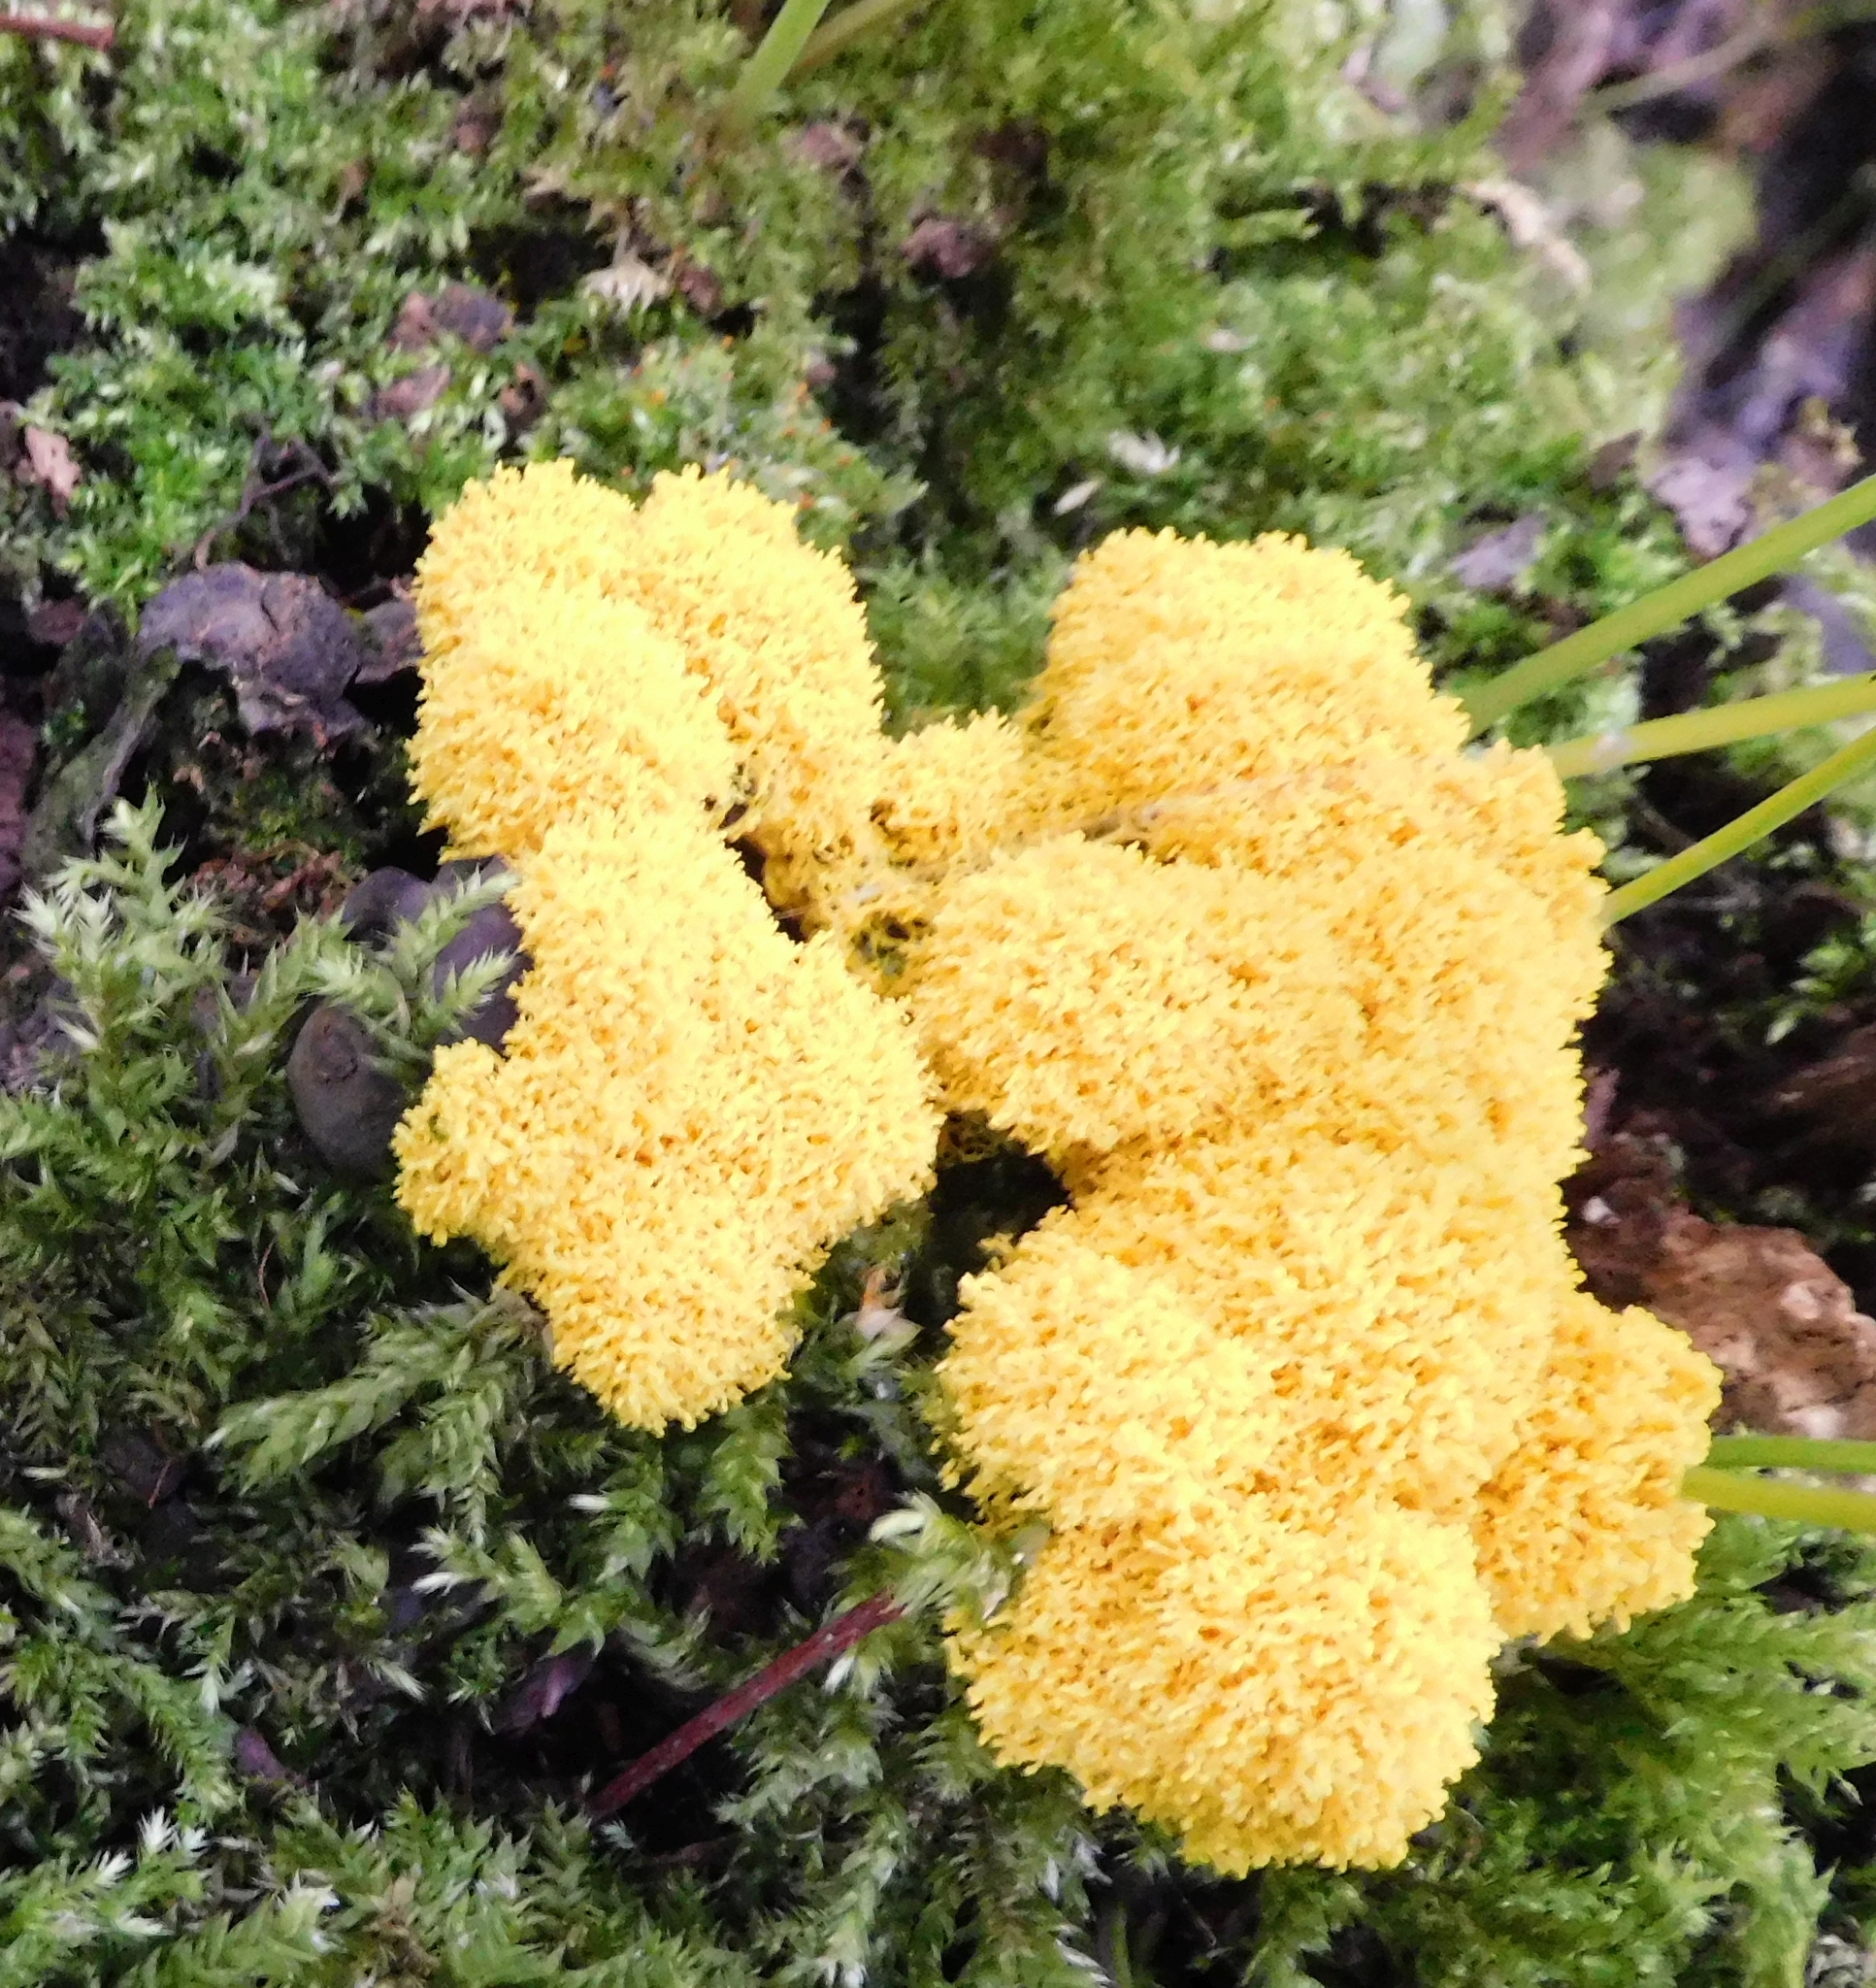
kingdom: Protozoa
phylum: Mycetozoa
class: Myxomycetes
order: Physarales
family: Physaraceae
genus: Fuligo
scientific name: Fuligo septica
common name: Dog vomit slime mold
